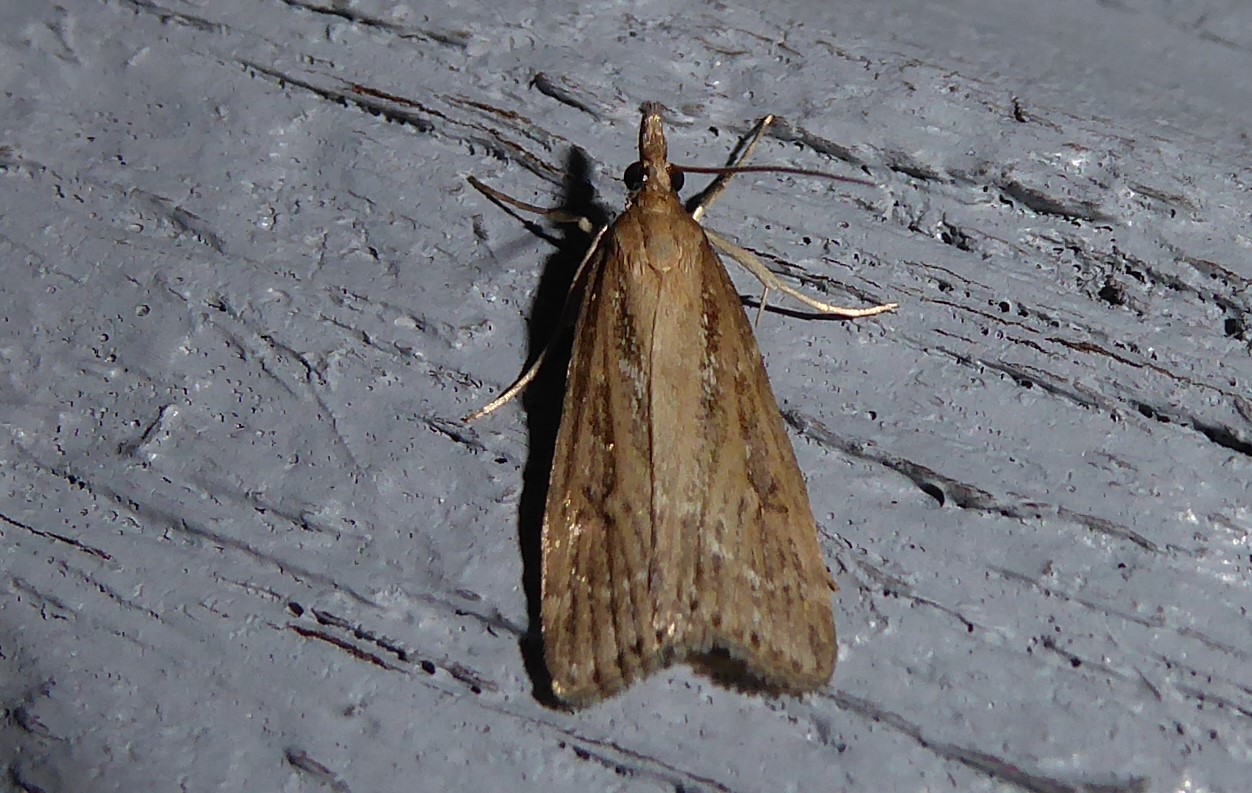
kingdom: Animalia
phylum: Arthropoda
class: Insecta
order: Lepidoptera
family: Crambidae
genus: Eudonia
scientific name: Eudonia octophora
